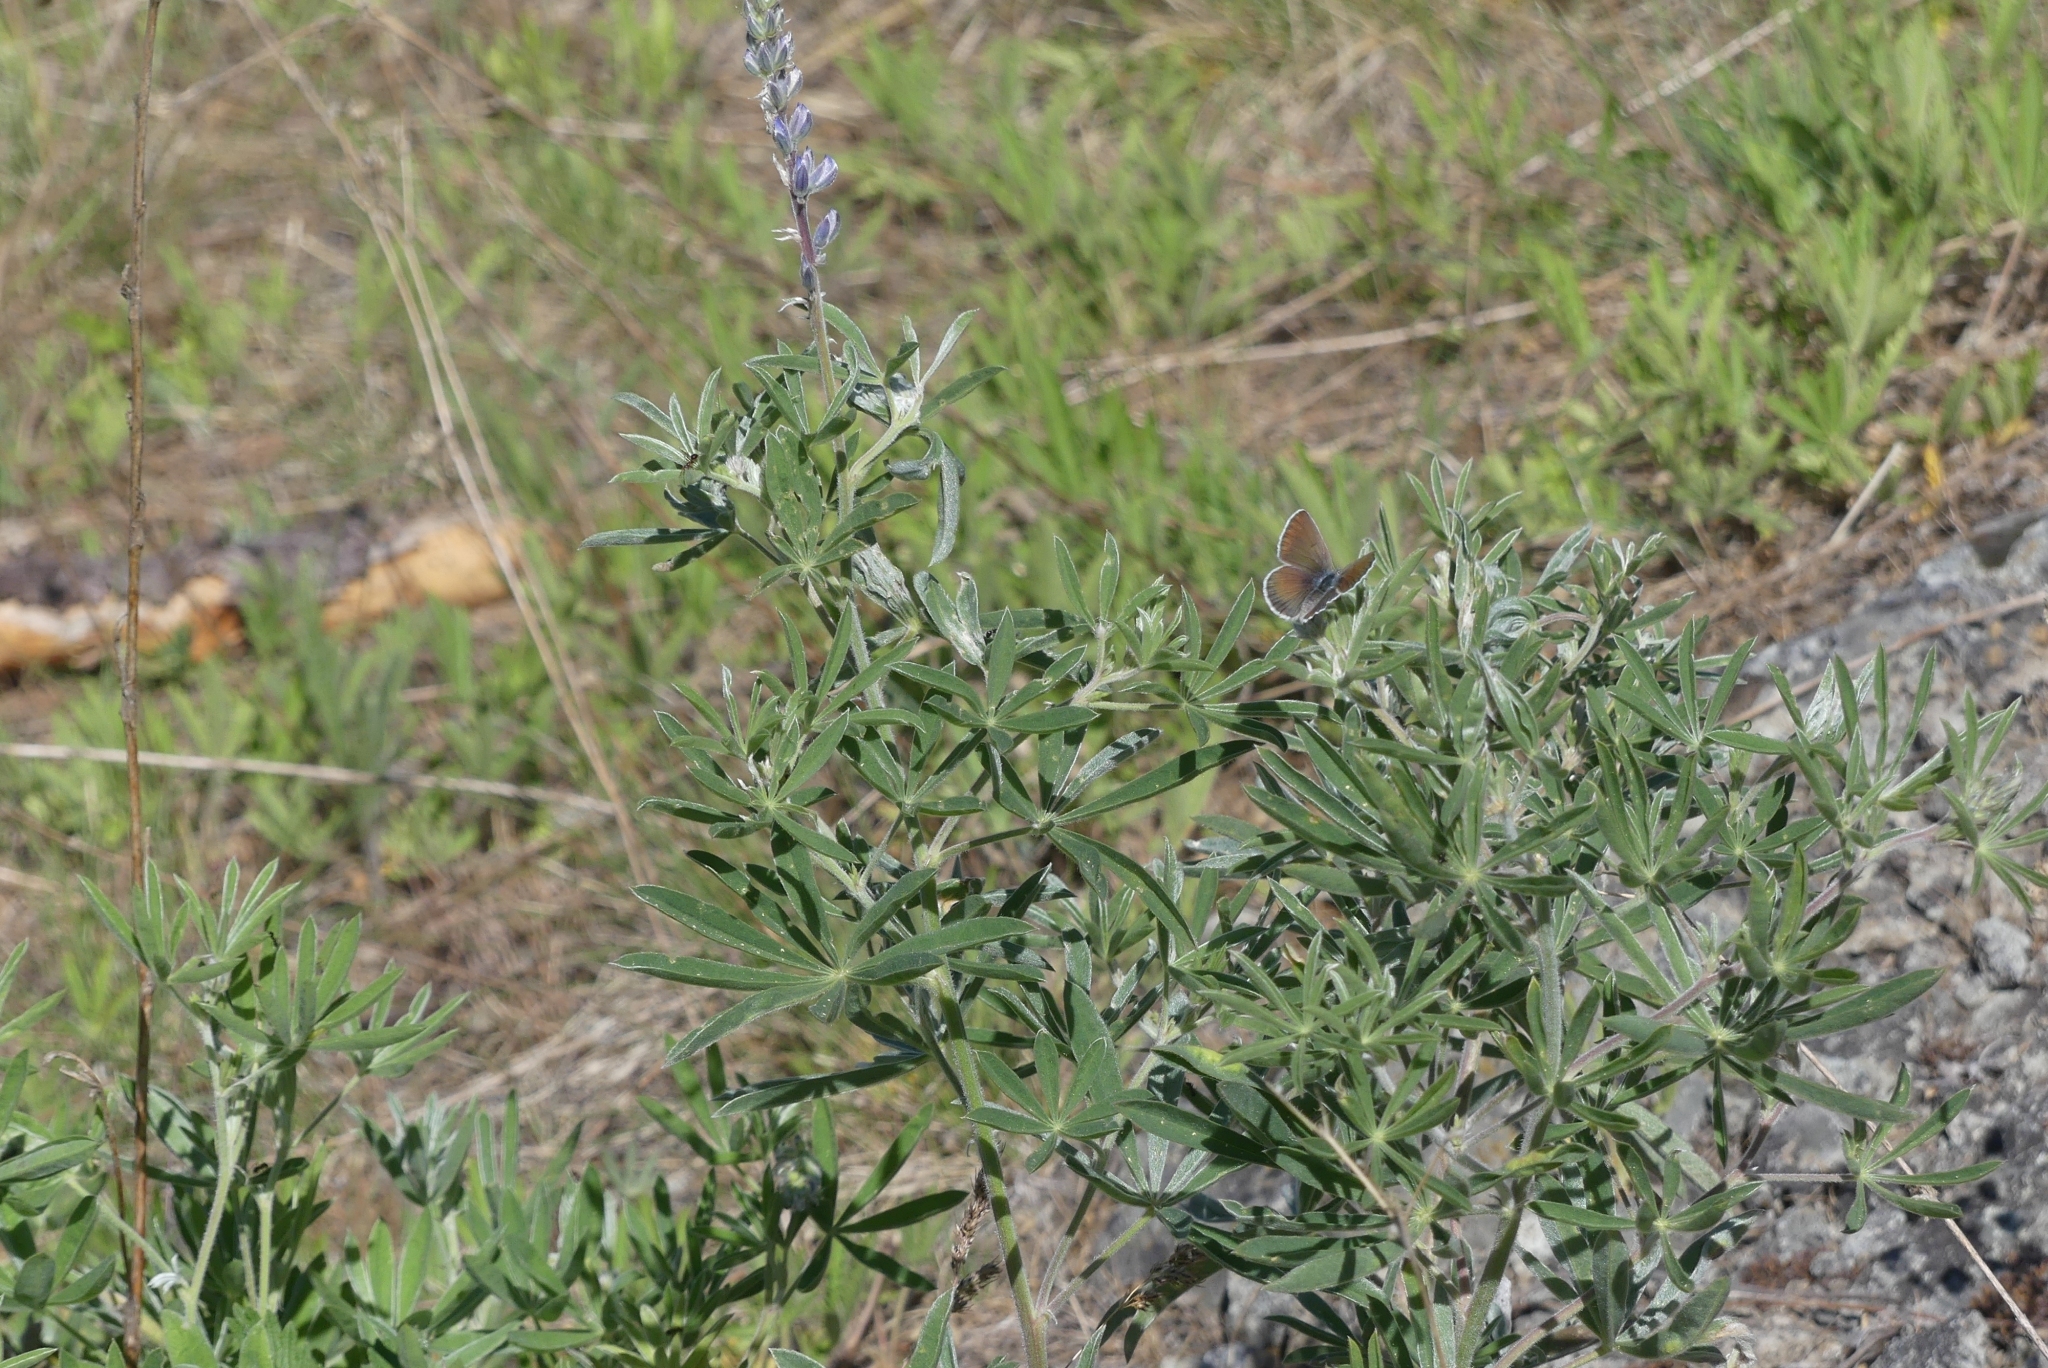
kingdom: Animalia
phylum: Arthropoda
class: Insecta
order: Lepidoptera
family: Lycaenidae
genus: Icaricia
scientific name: Icaricia icarioides
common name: Boisduval's blue
